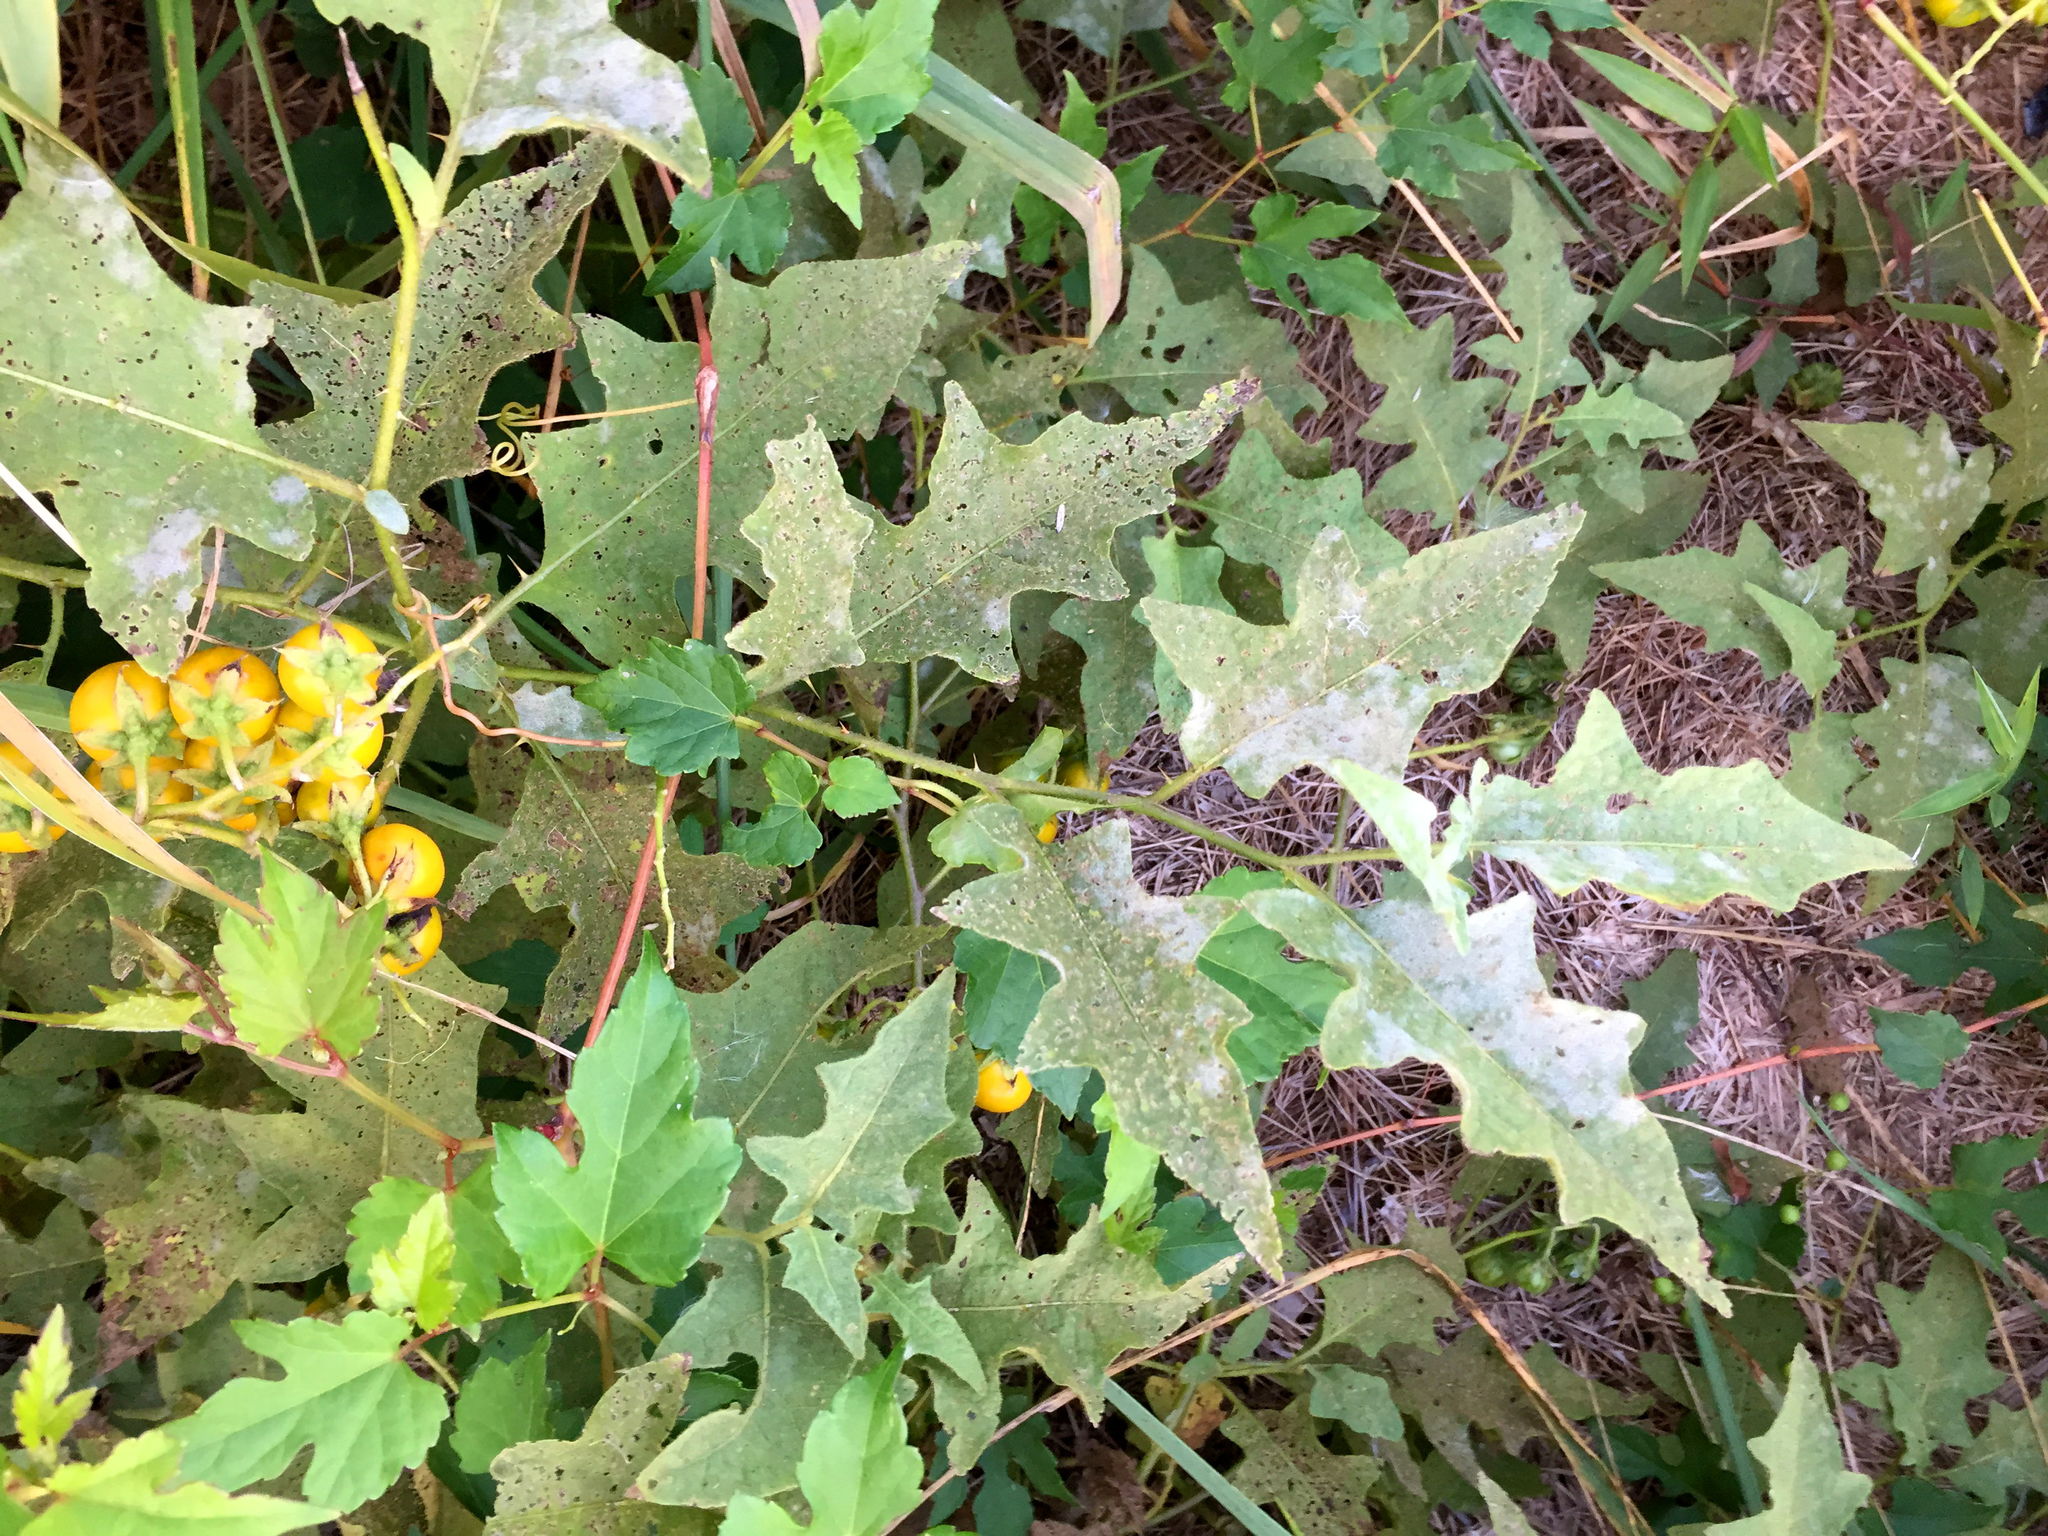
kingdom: Plantae
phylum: Tracheophyta
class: Magnoliopsida
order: Solanales
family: Solanaceae
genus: Solanum
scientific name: Solanum carolinense
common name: Horse-nettle
